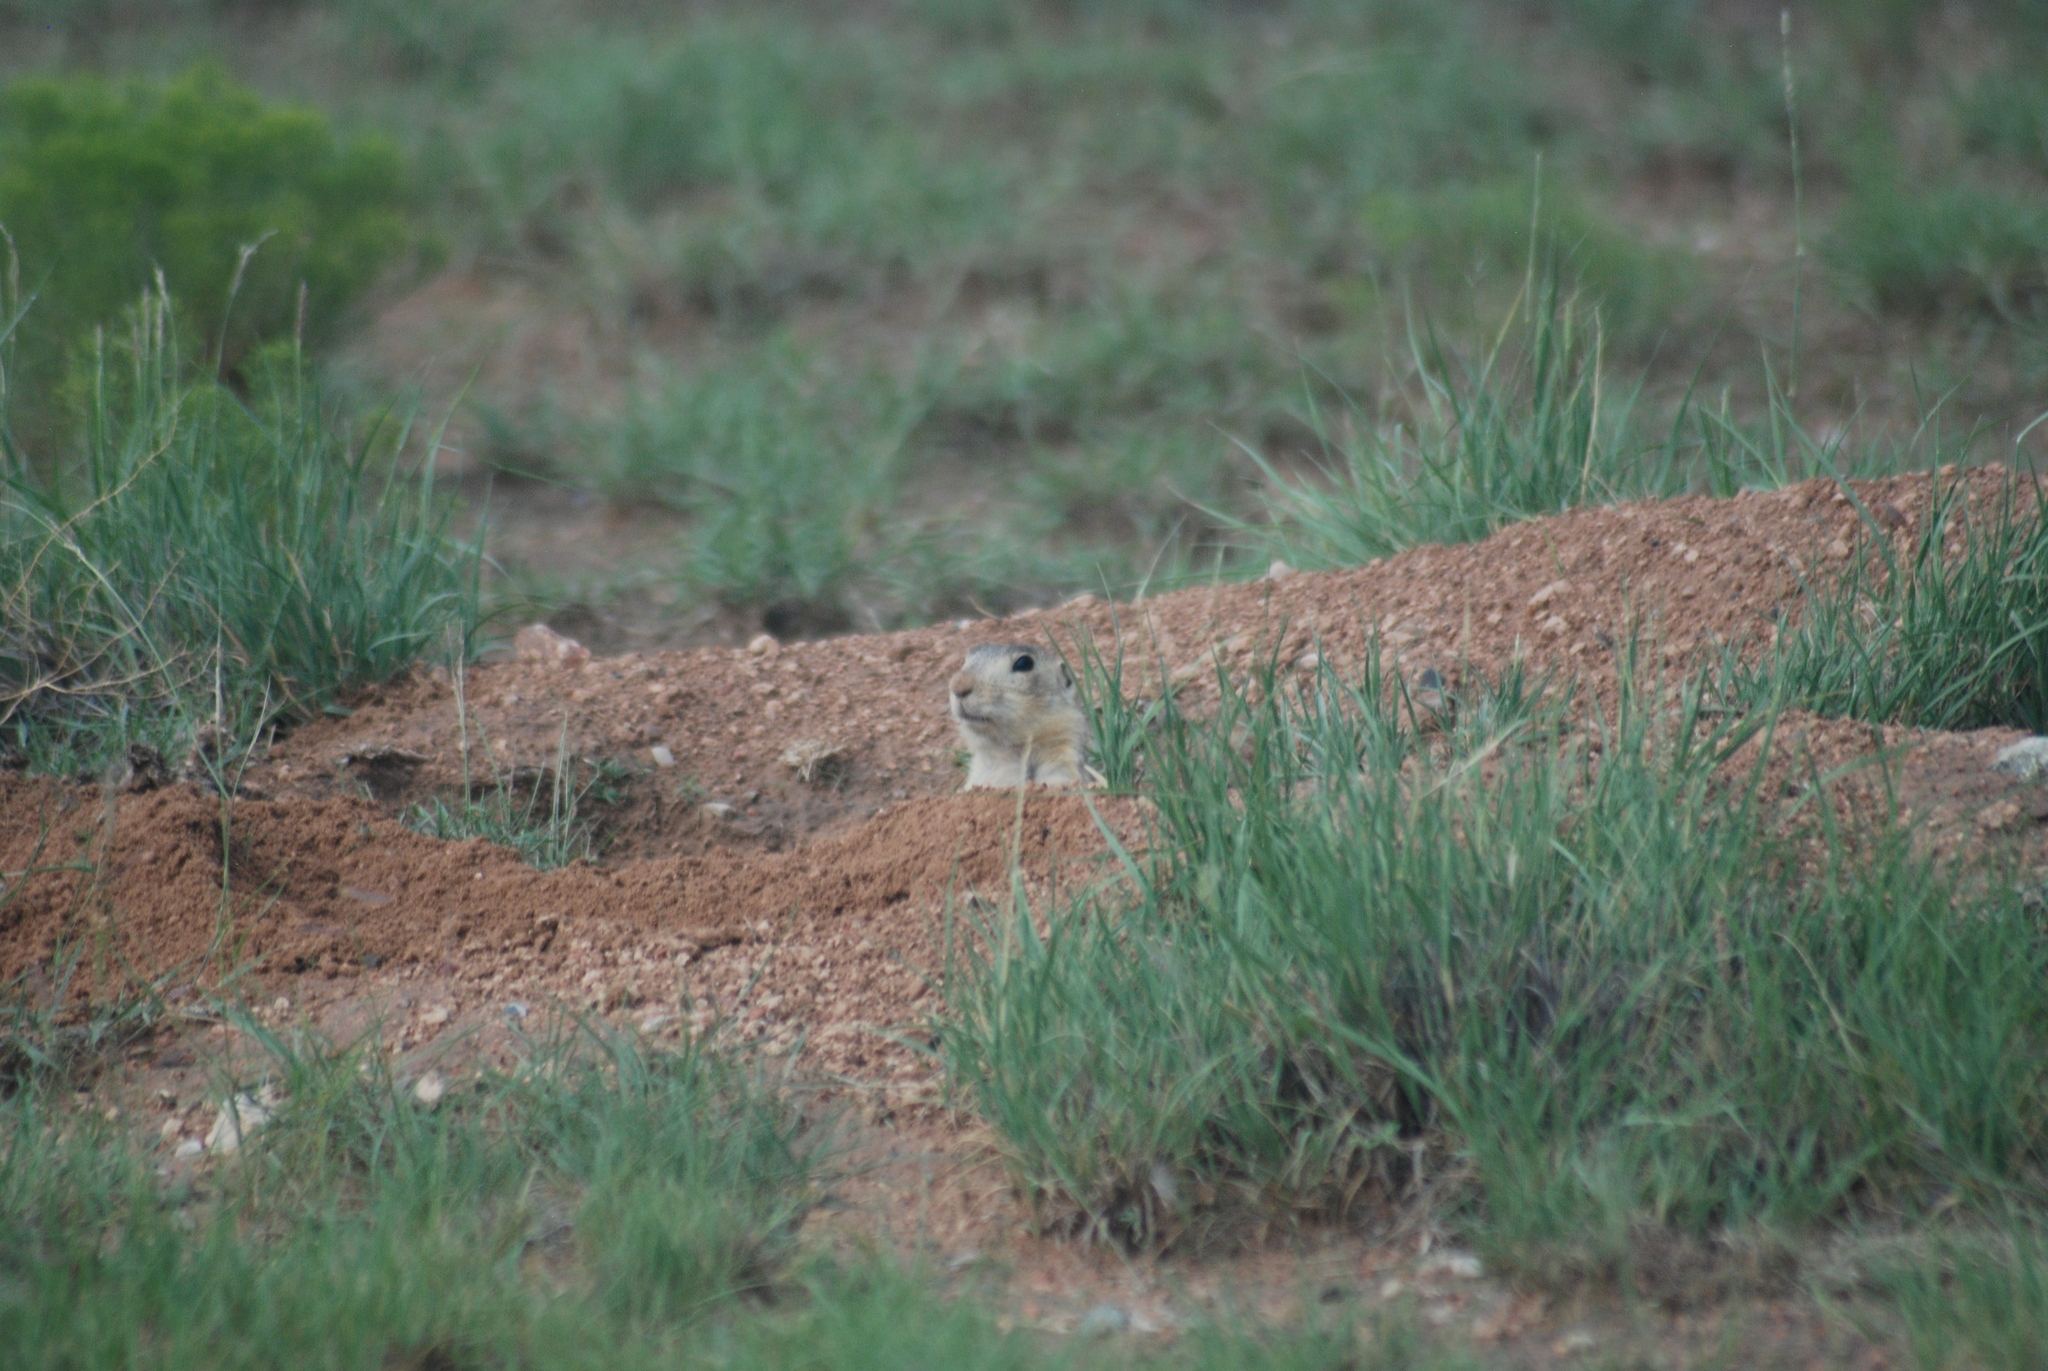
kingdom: Animalia
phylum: Chordata
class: Mammalia
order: Rodentia
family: Sciuridae
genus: Cynomys
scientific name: Cynomys gunnisoni
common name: Gunnison's prairie dog
